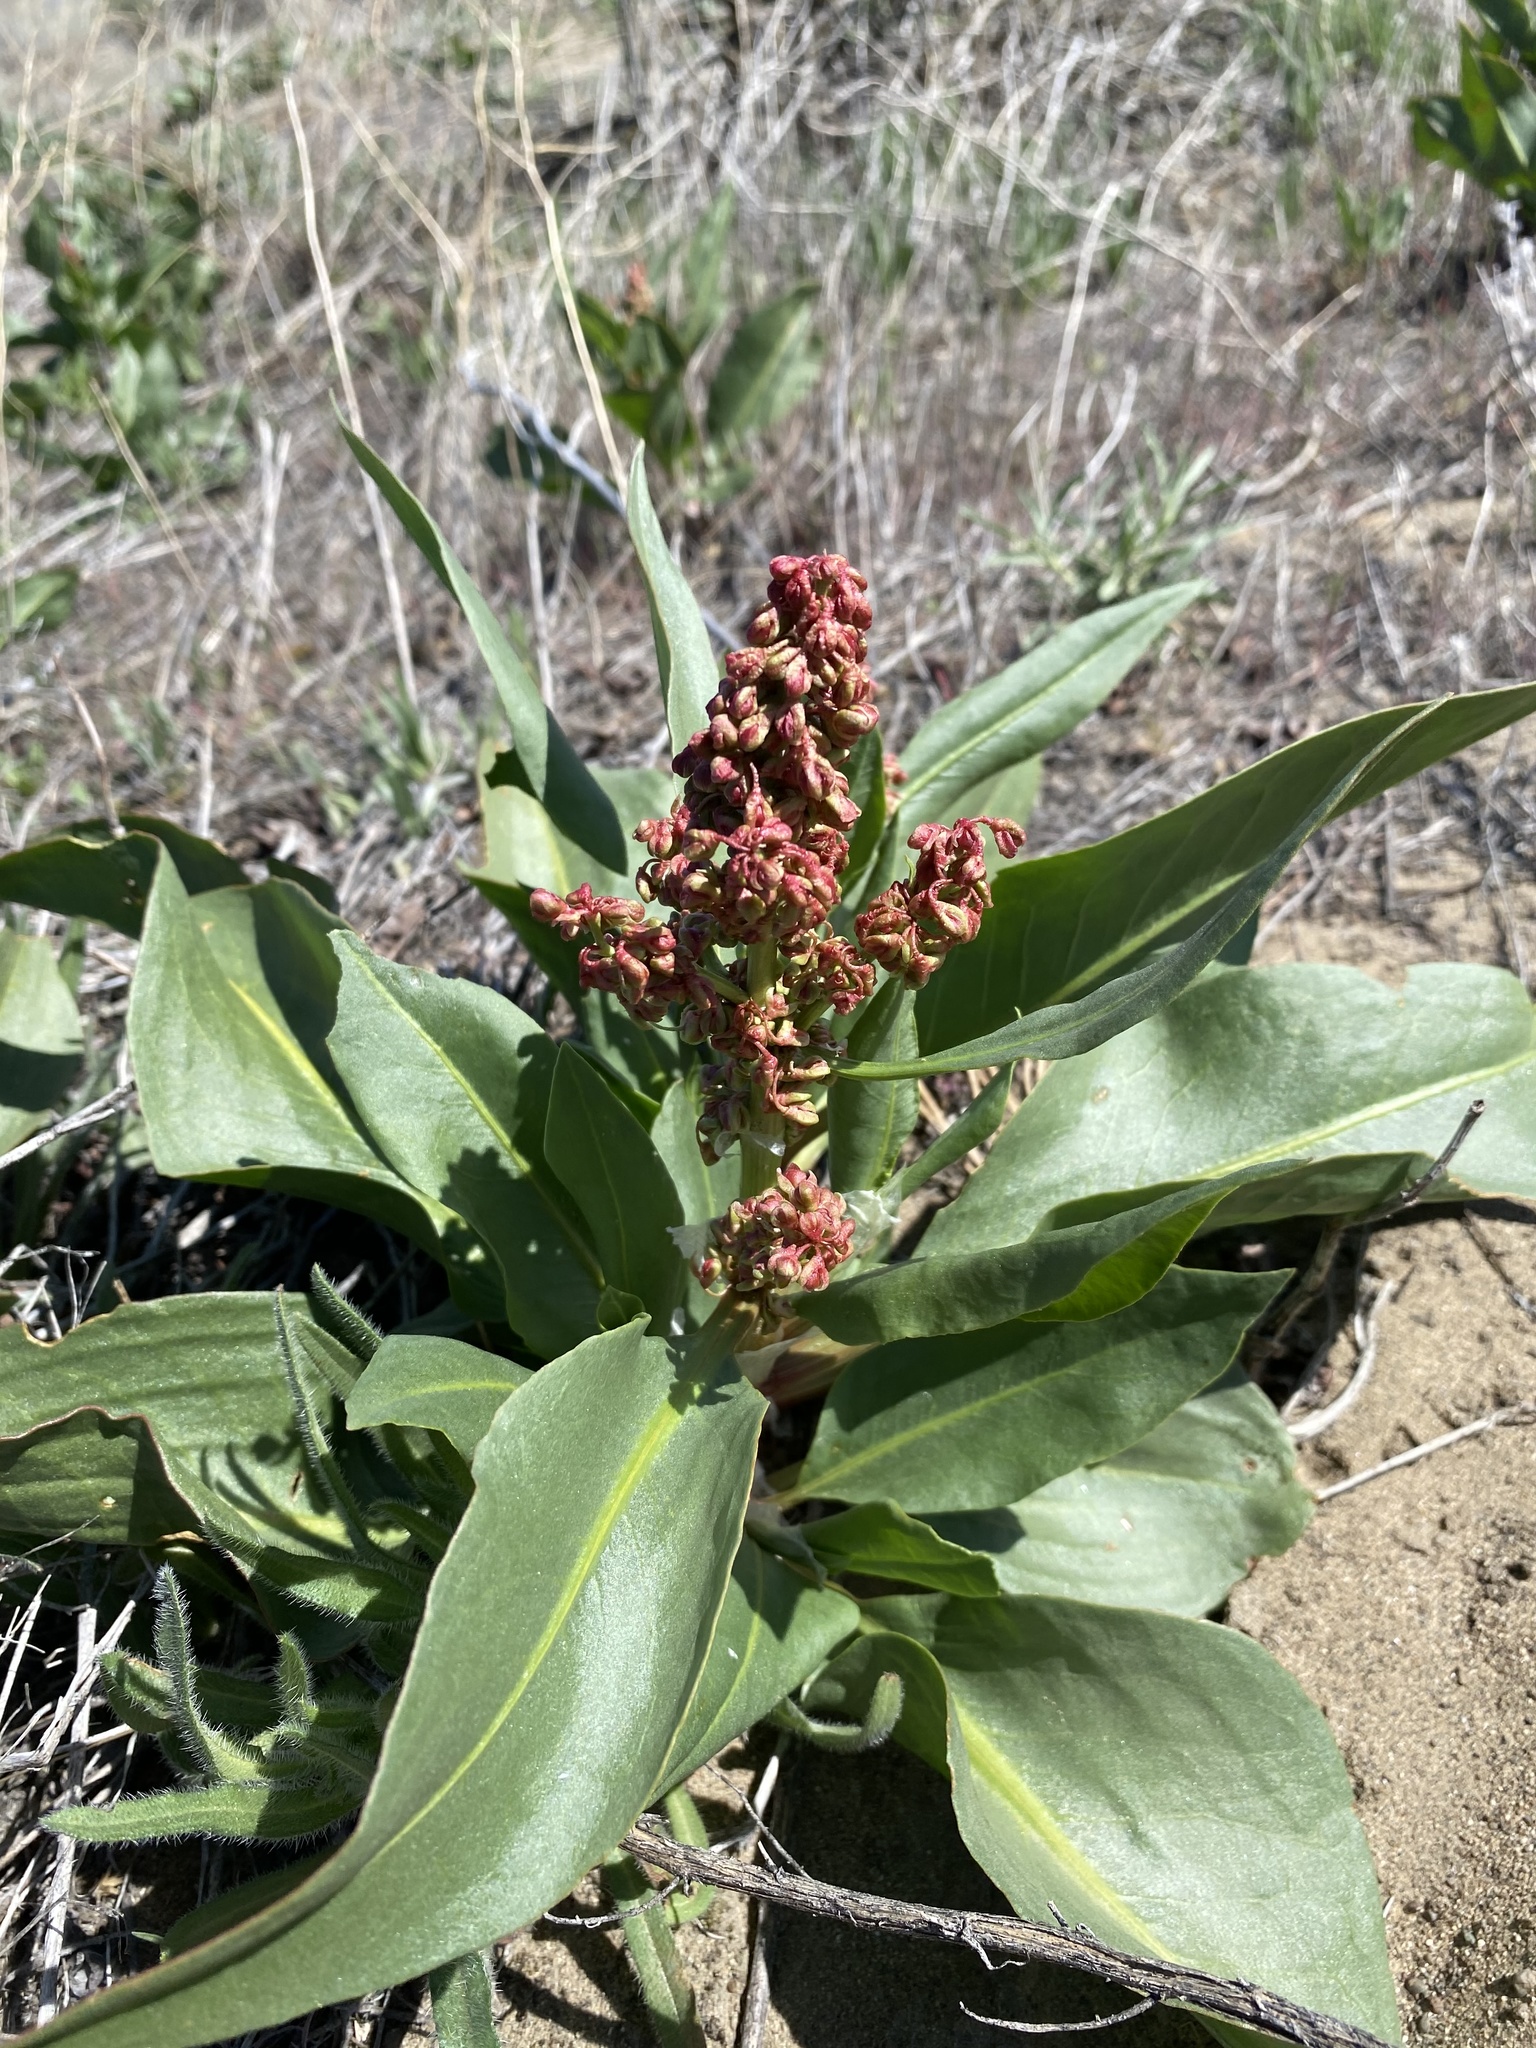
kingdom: Plantae
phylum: Tracheophyta
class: Magnoliopsida
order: Caryophyllales
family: Polygonaceae
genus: Rumex
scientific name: Rumex venosus
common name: Winged dock
